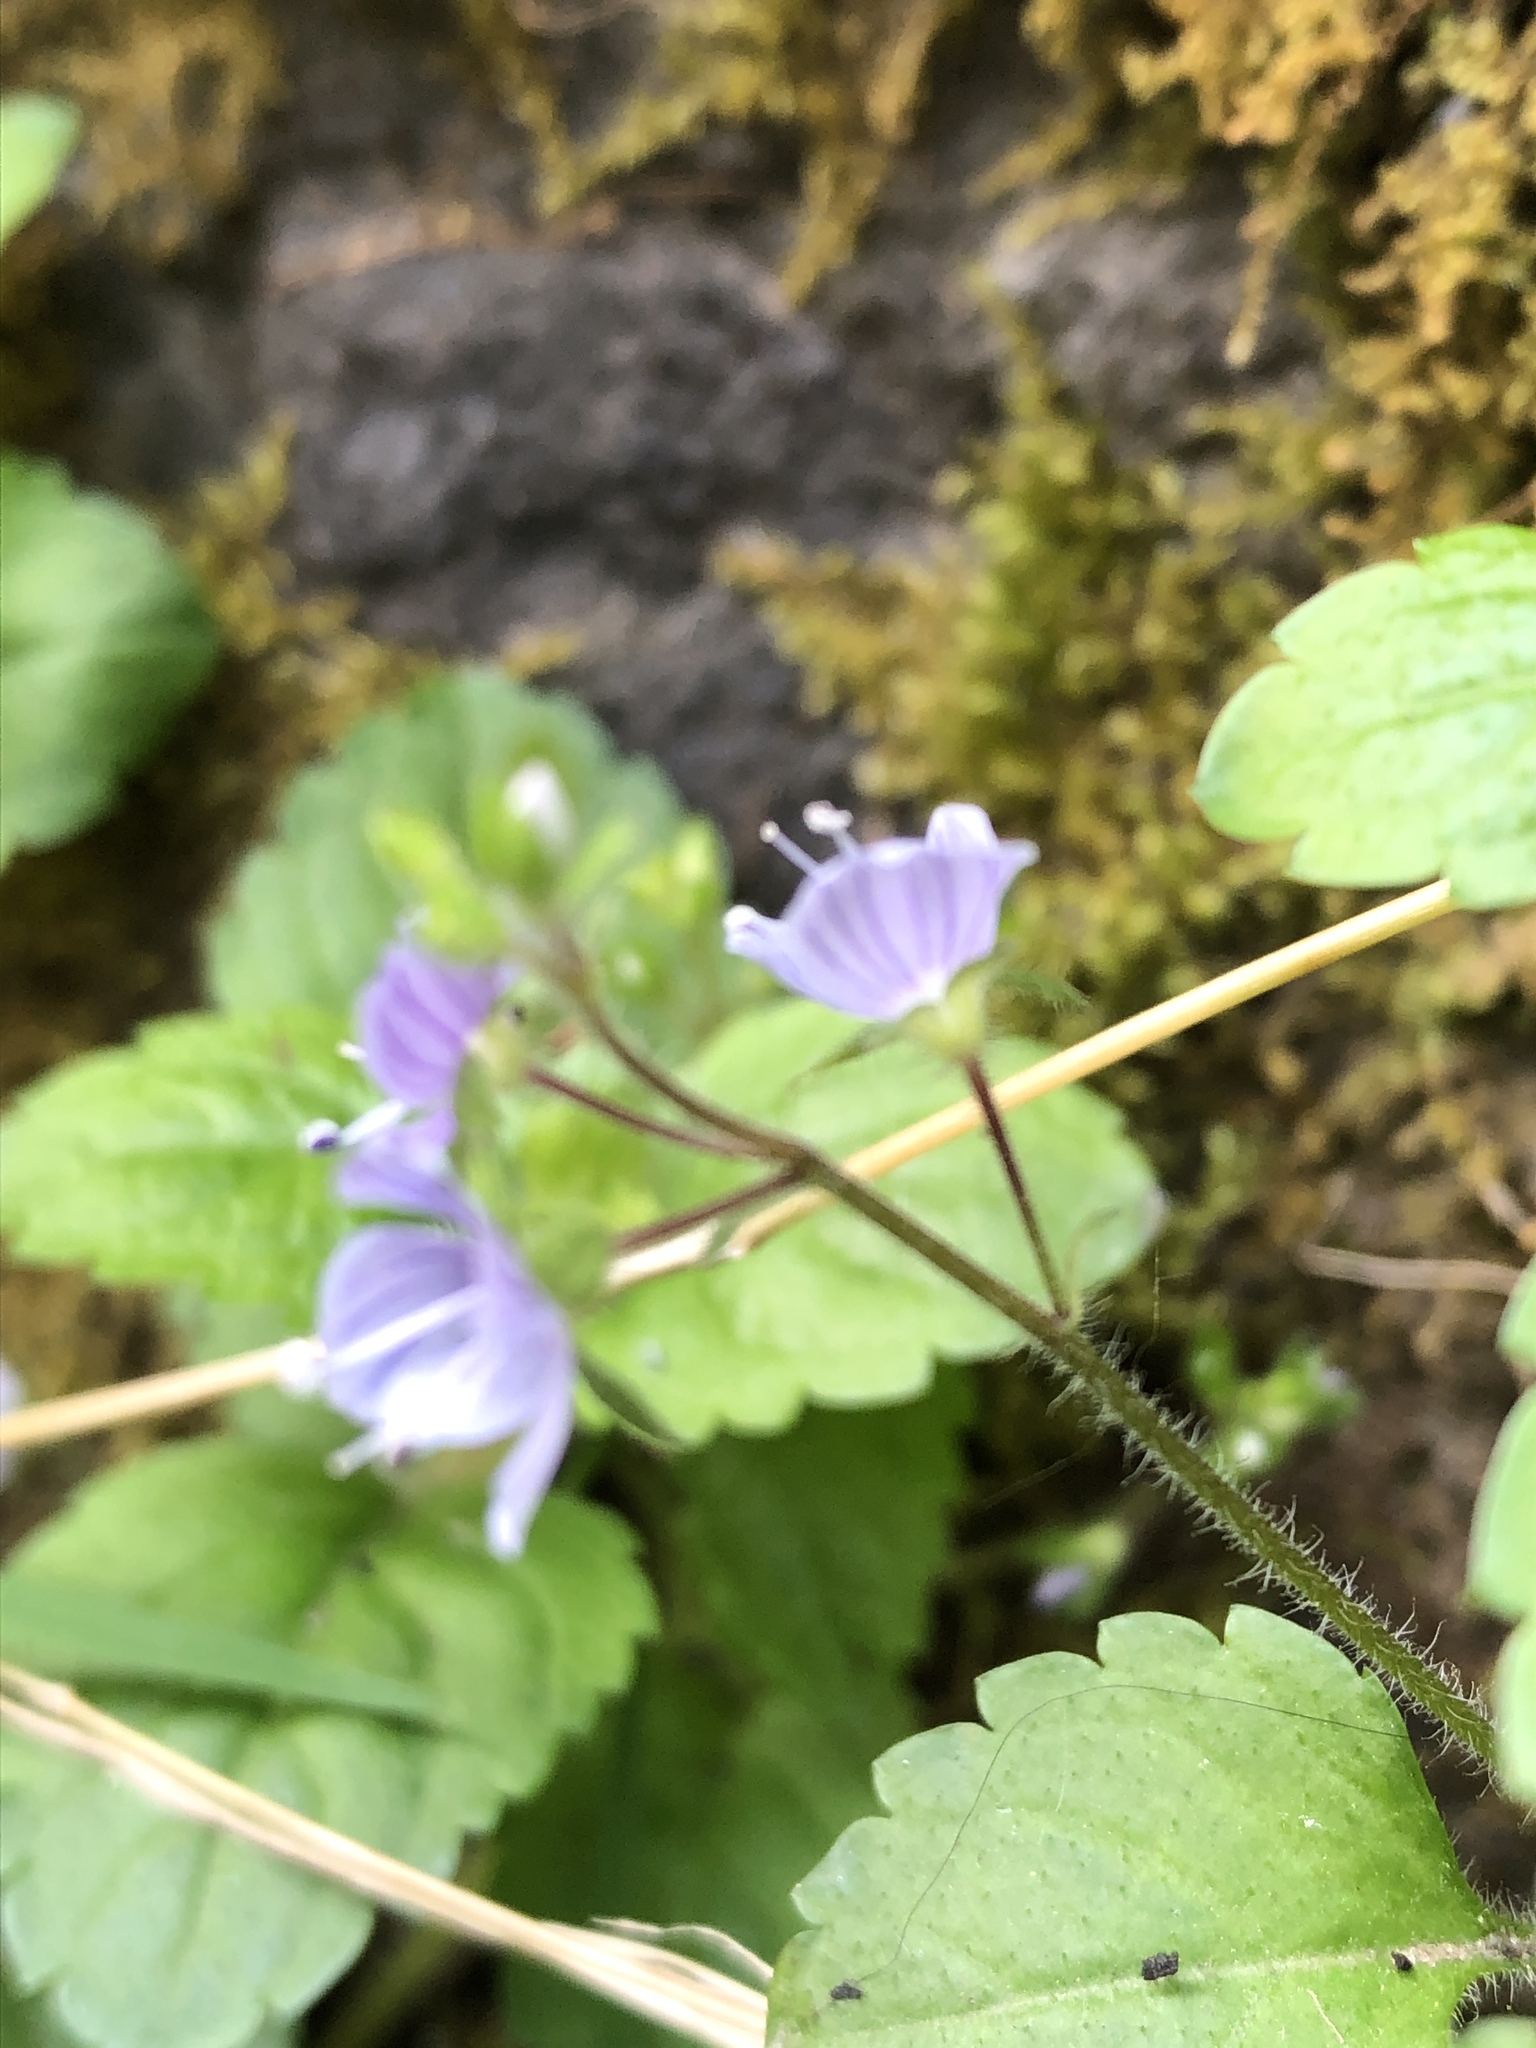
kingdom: Plantae
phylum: Tracheophyta
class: Magnoliopsida
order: Lamiales
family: Plantaginaceae
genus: Veronica
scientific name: Veronica montana
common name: Wood speedwell
